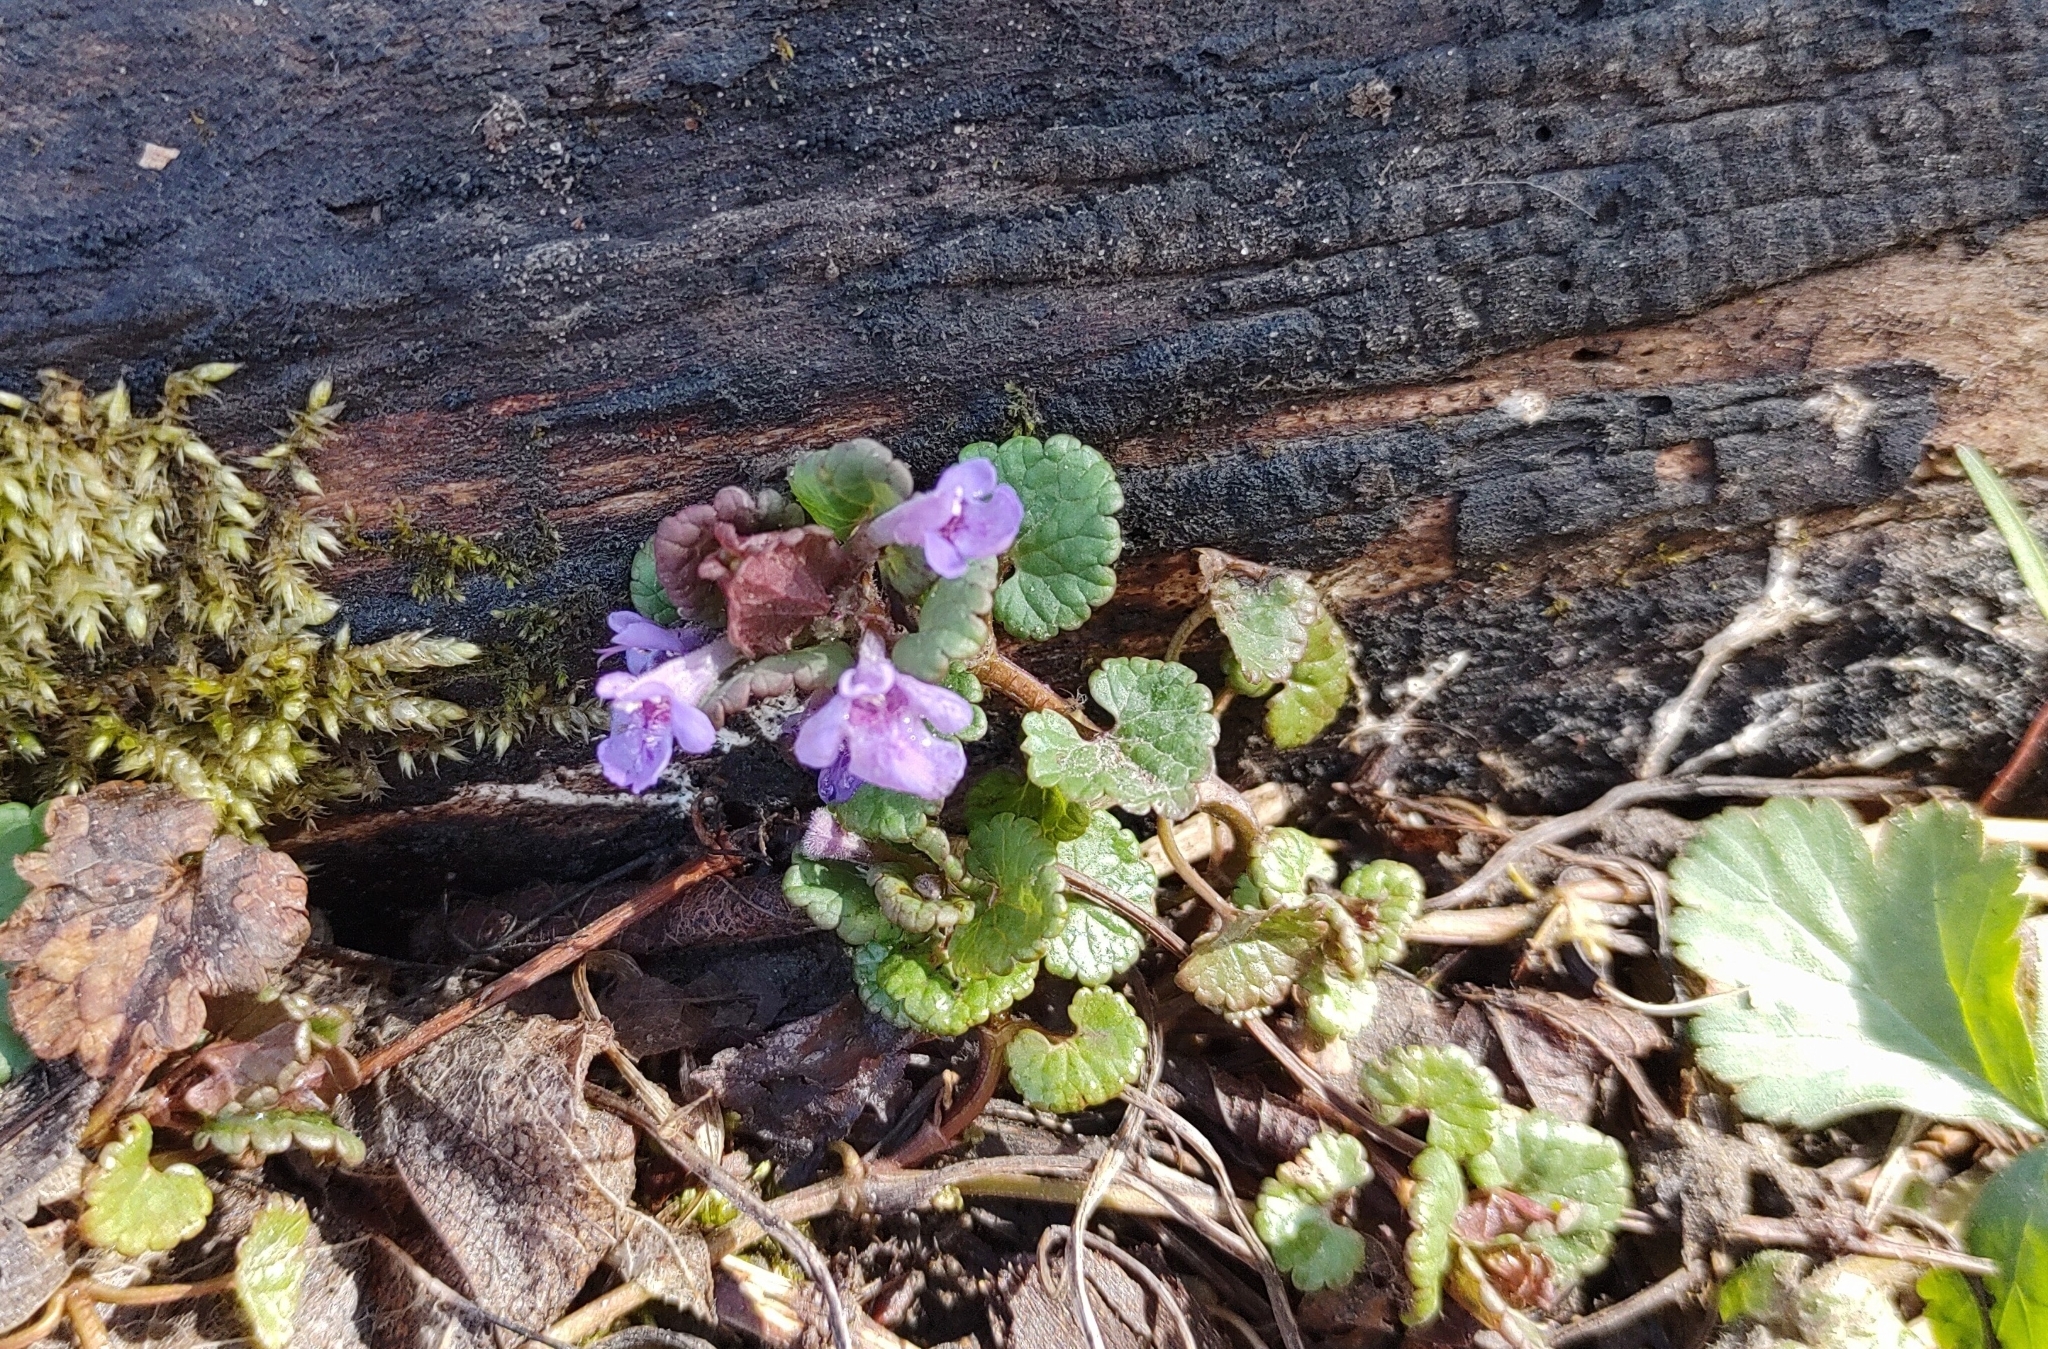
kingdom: Plantae
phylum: Tracheophyta
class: Magnoliopsida
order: Lamiales
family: Lamiaceae
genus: Glechoma
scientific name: Glechoma hederacea
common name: Ground ivy
